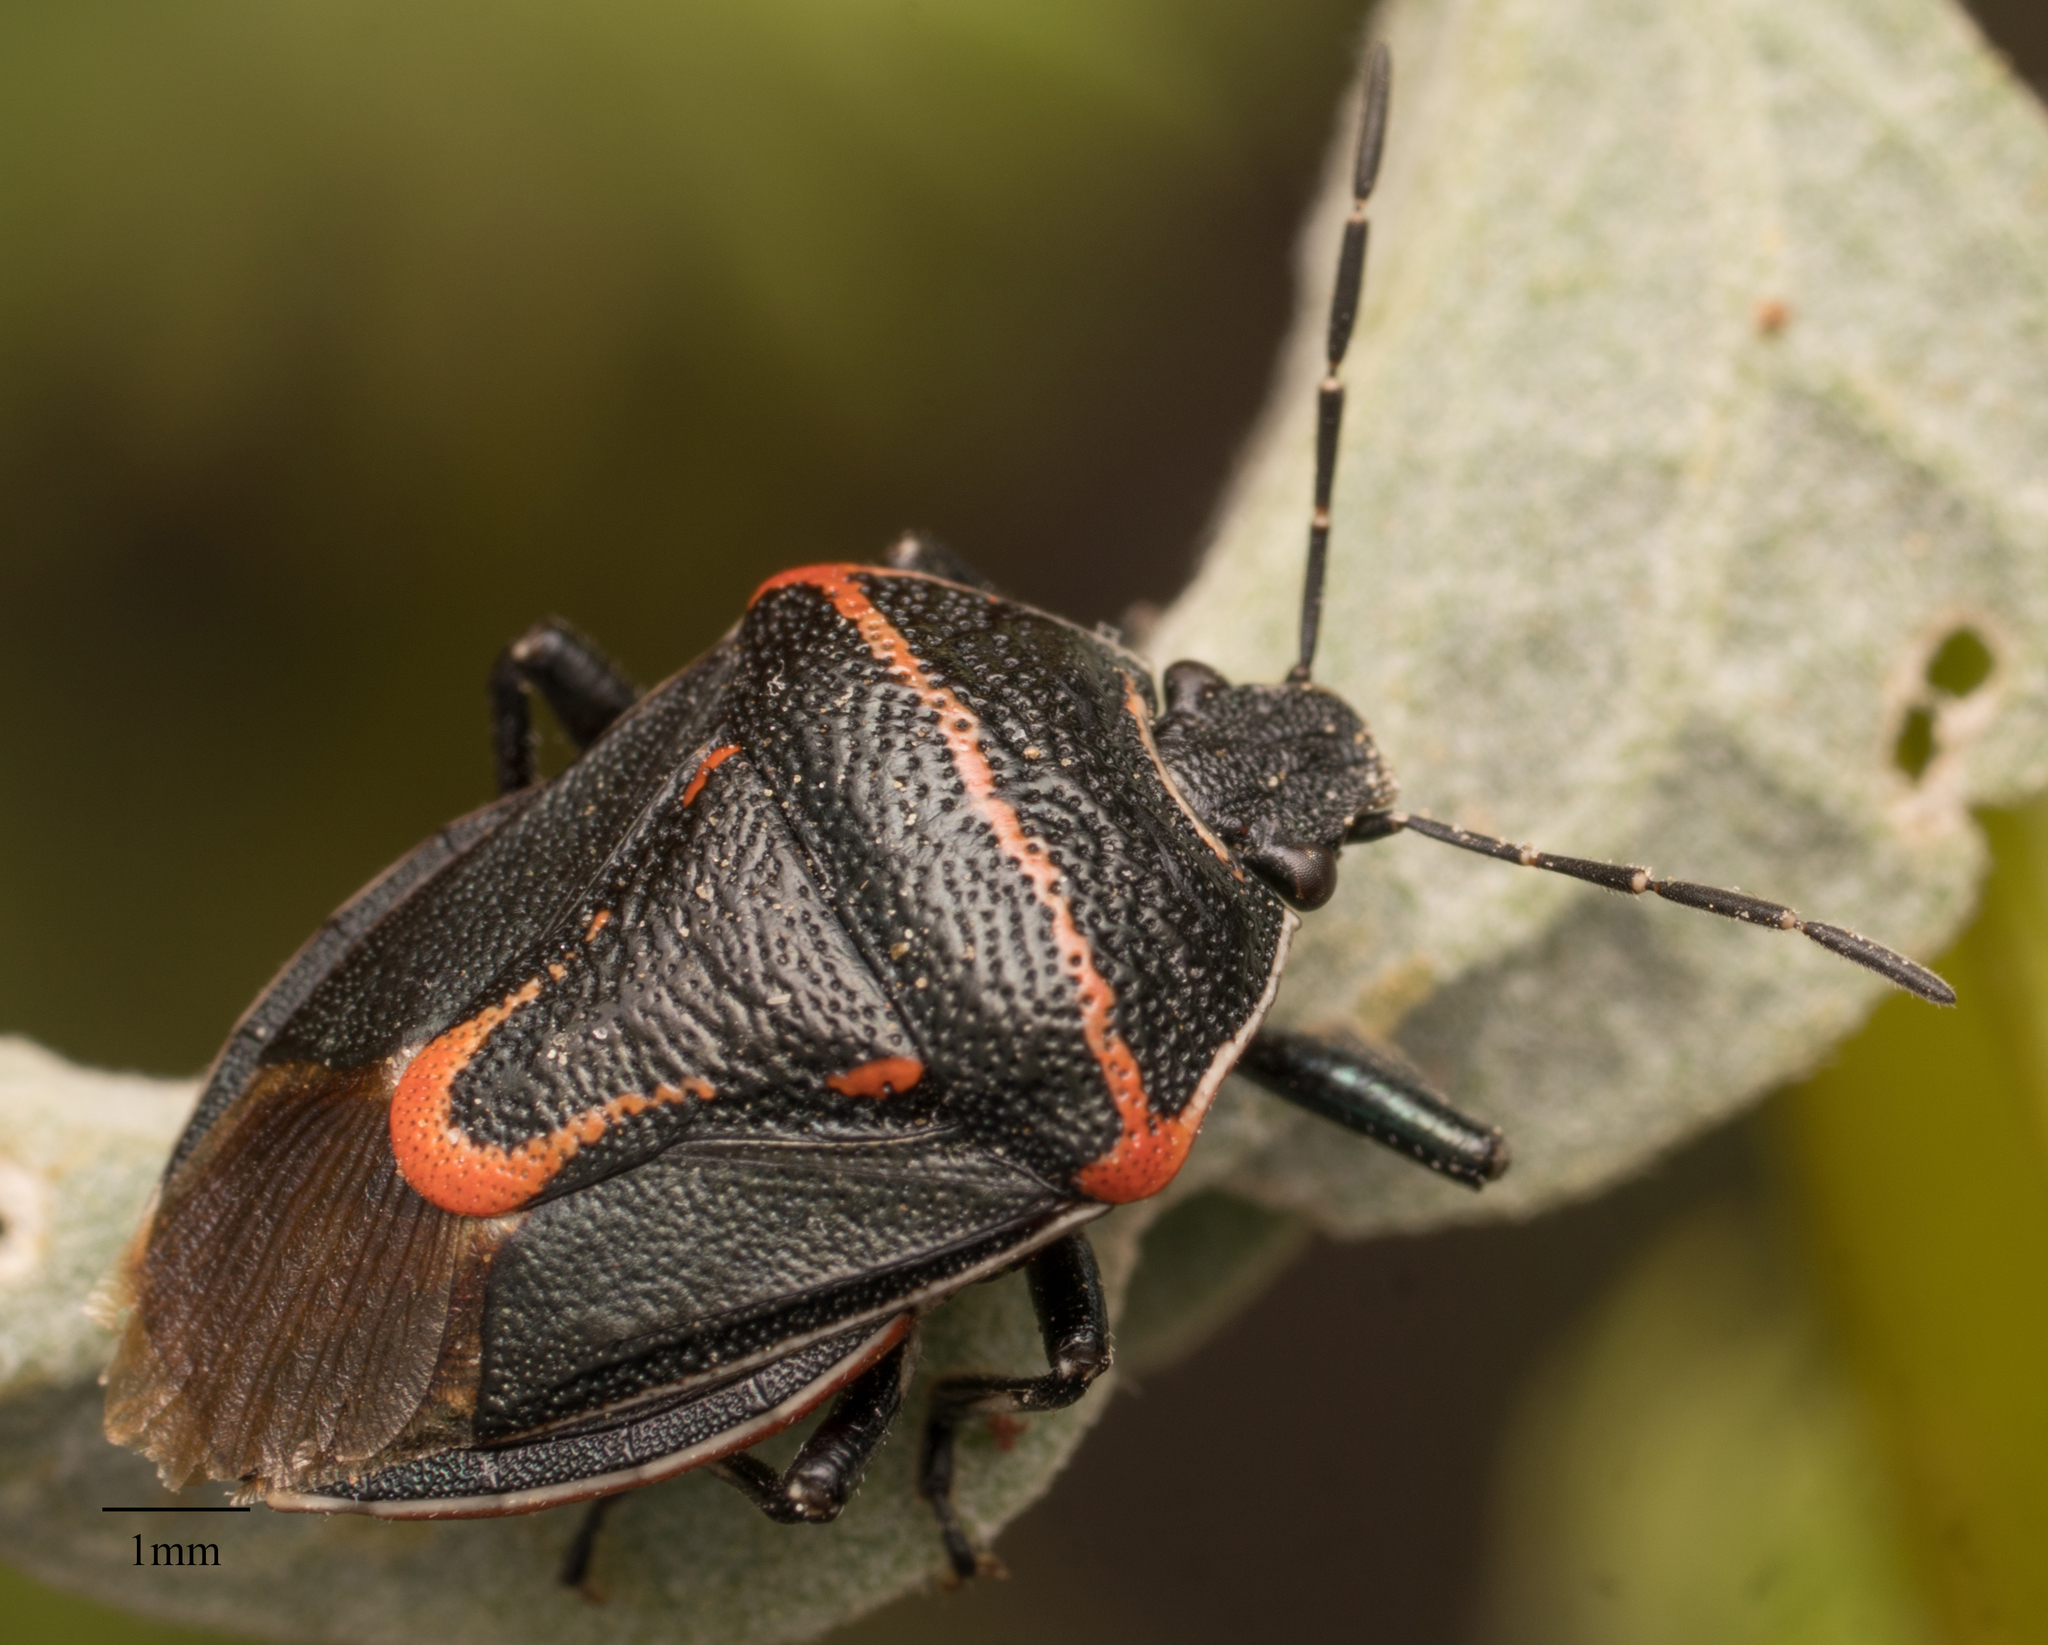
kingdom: Animalia
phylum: Arthropoda
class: Insecta
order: Hemiptera
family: Pentatomidae
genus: Perillus
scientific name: Perillus splendidus
